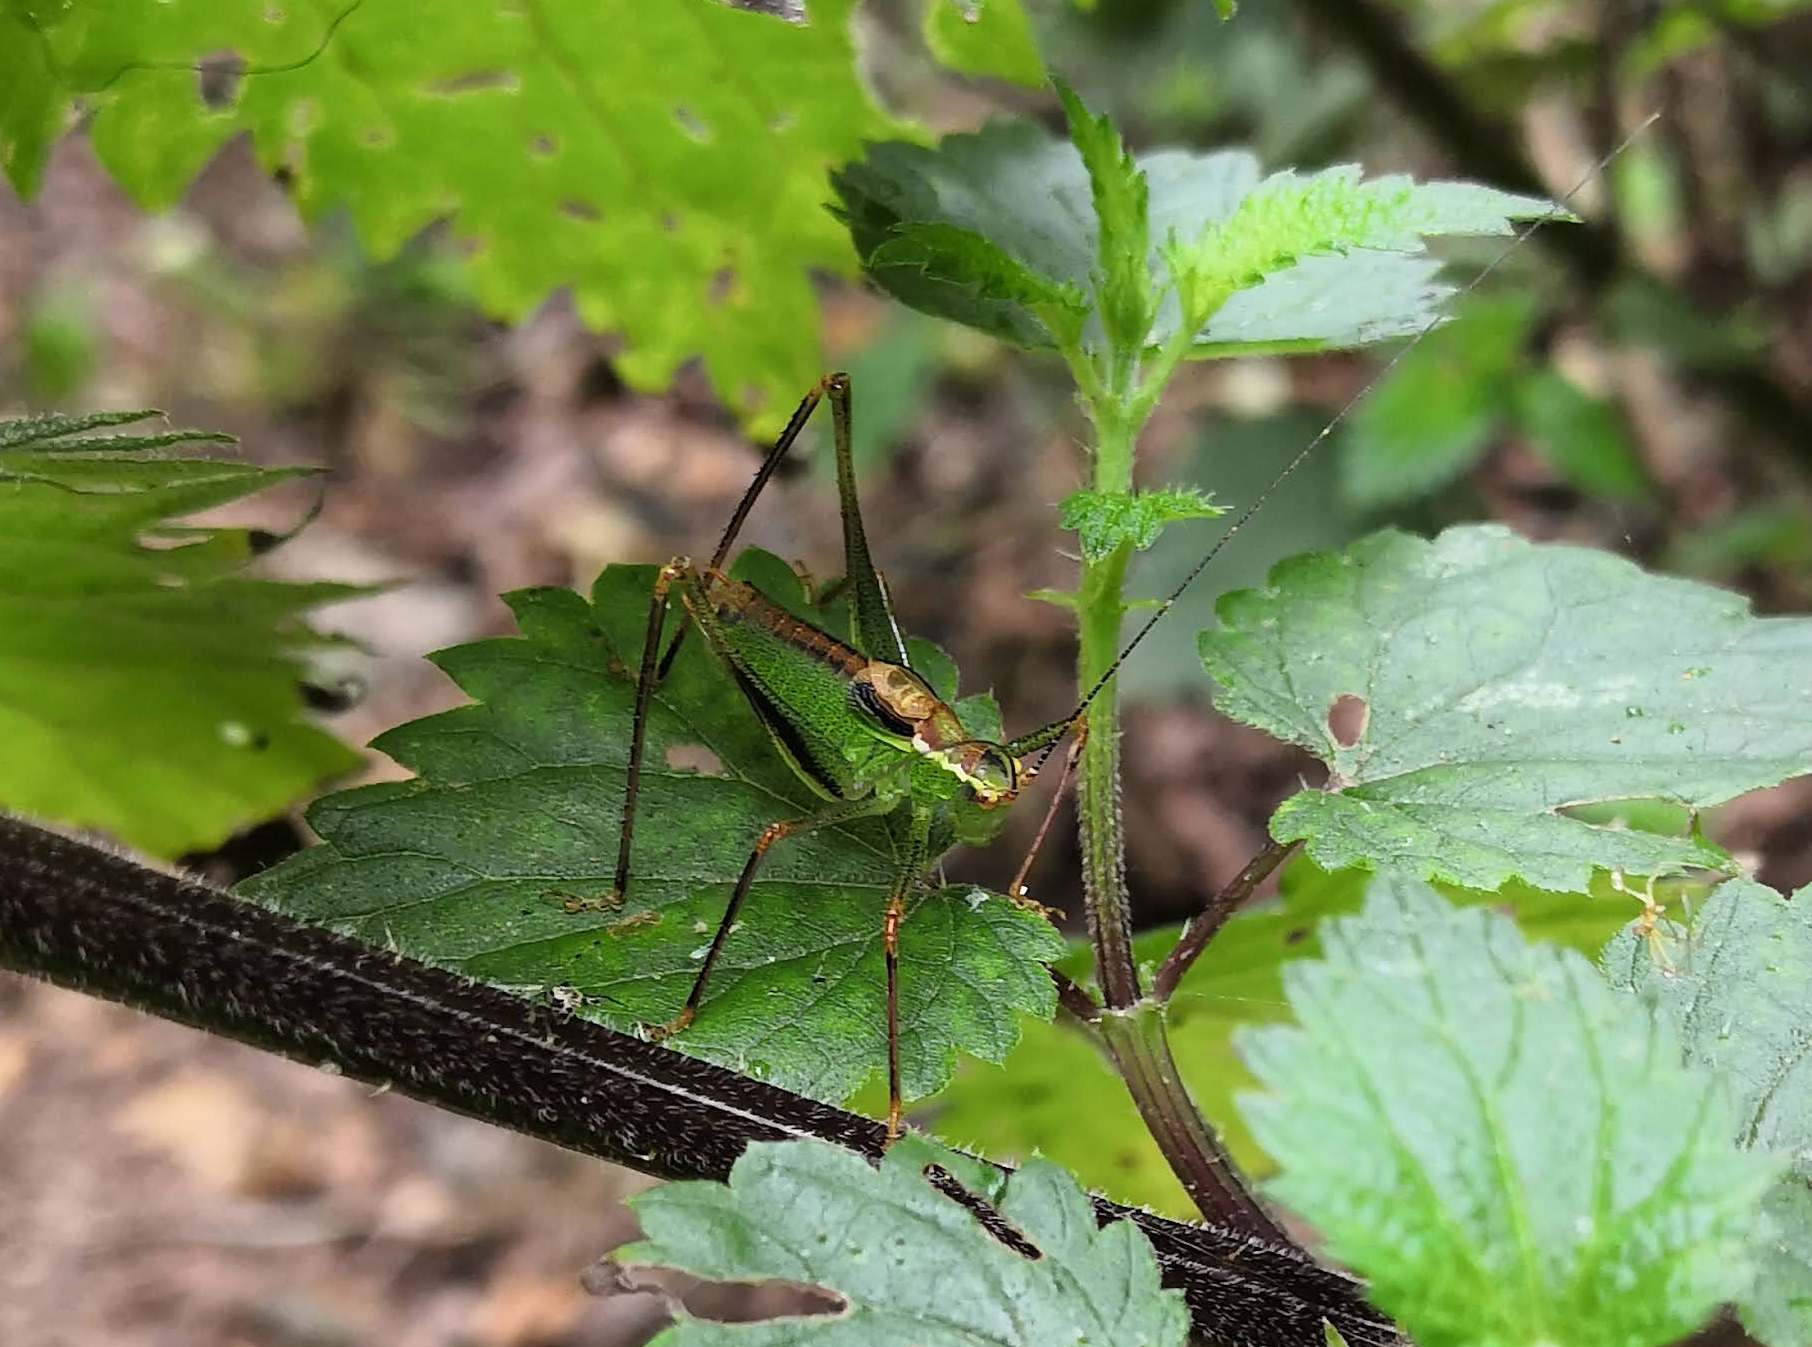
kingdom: Animalia
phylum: Arthropoda
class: Insecta
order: Orthoptera
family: Tettigoniidae
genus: Leptophyes
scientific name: Leptophyes punctatissima
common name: Speckled bush-cricket
